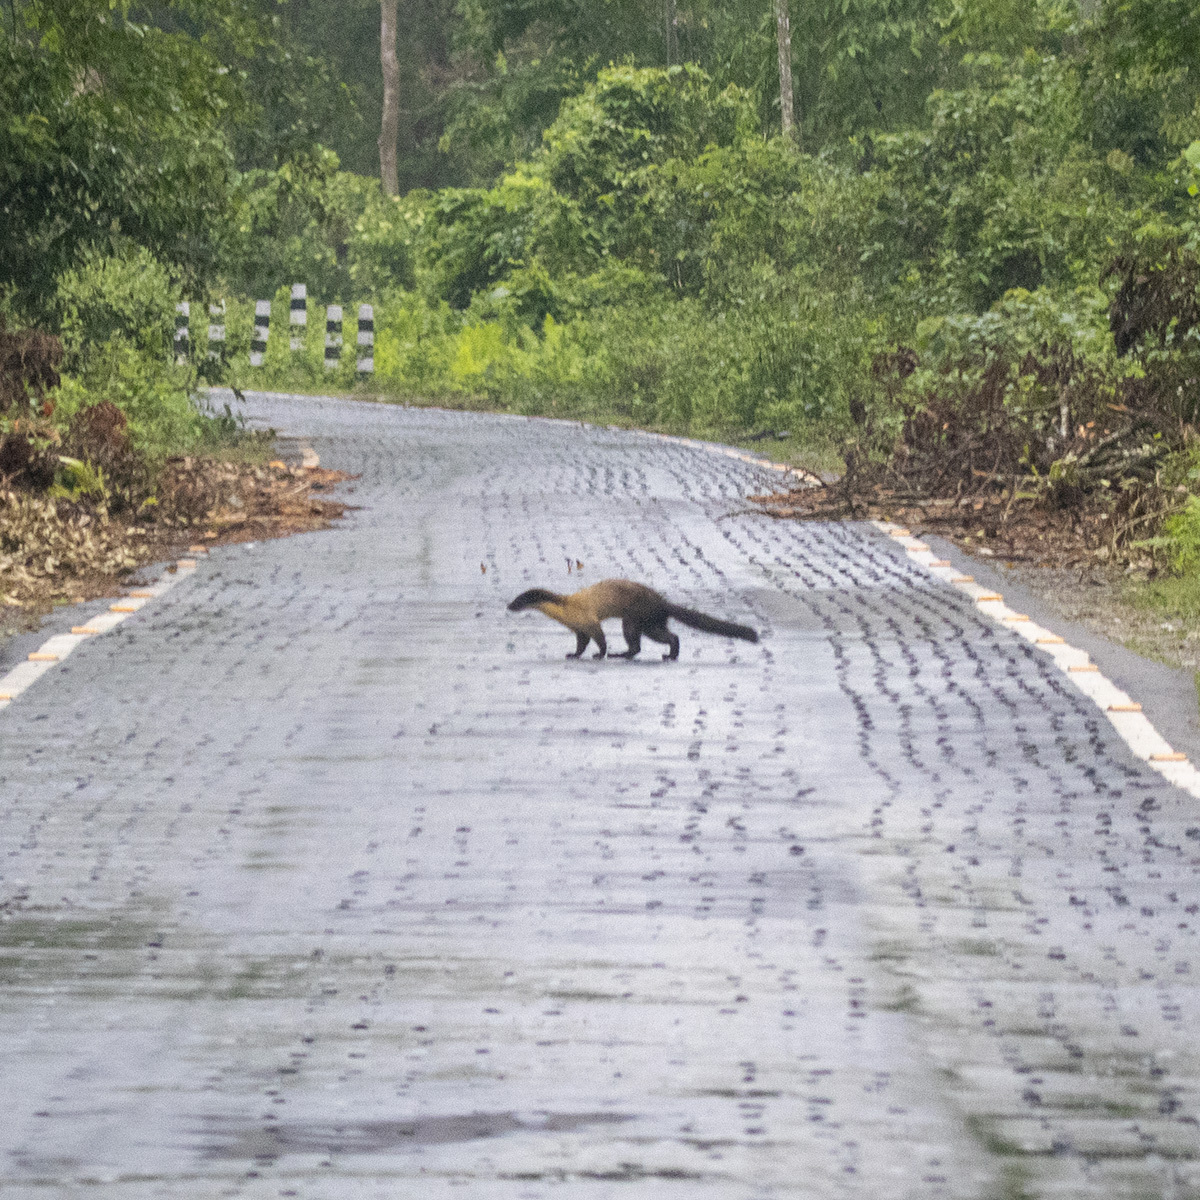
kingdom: Animalia
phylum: Chordata
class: Mammalia
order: Carnivora
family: Mustelidae
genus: Martes
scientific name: Martes flavigula
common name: Yellow-throated marten
